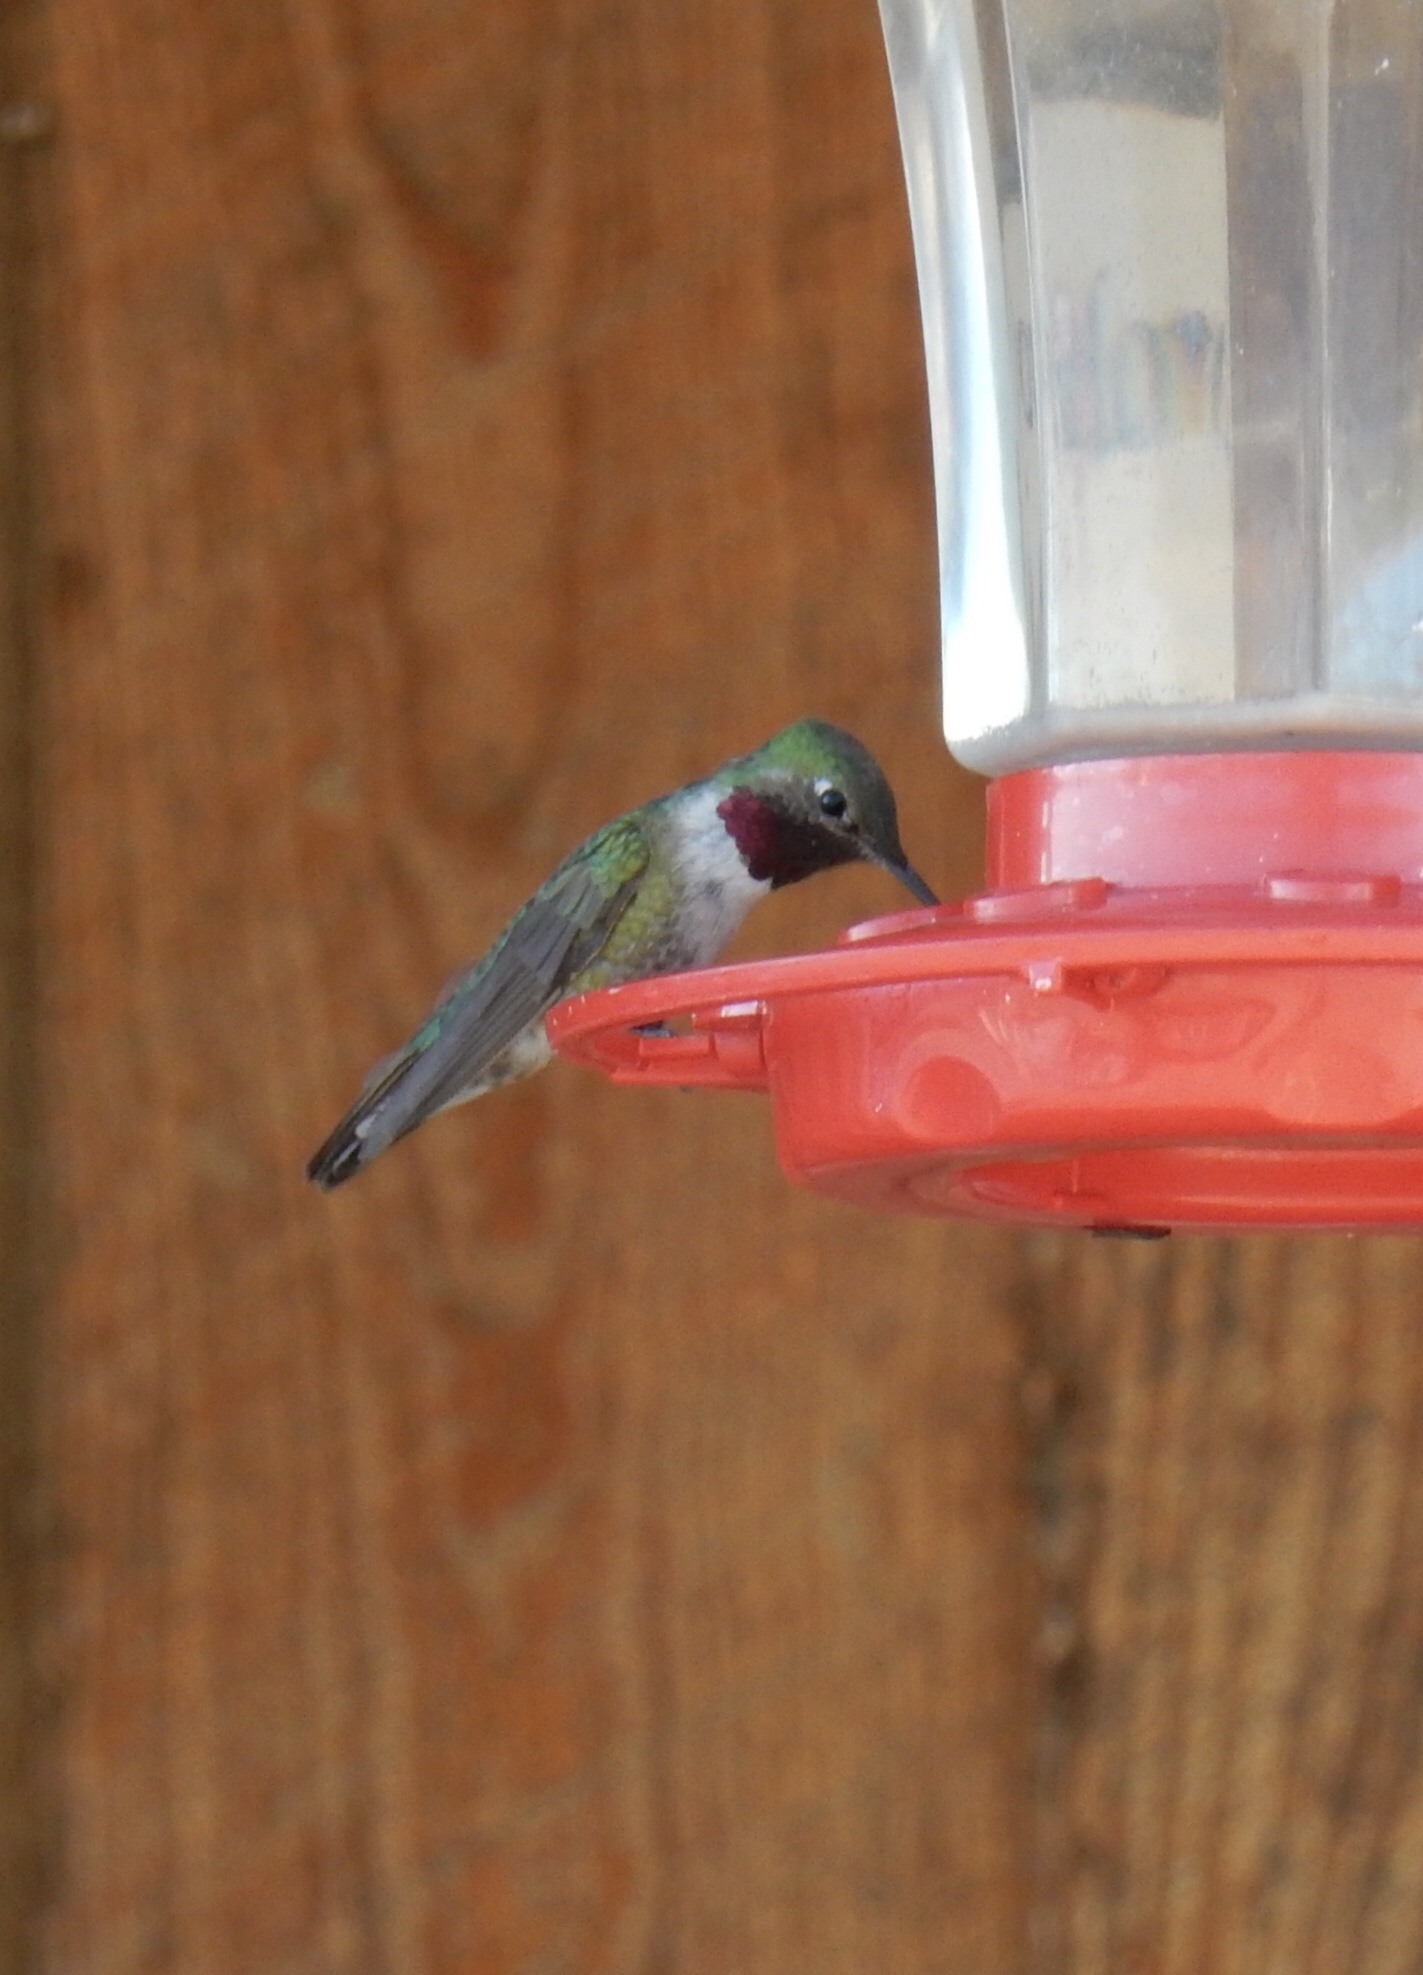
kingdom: Animalia
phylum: Chordata
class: Aves
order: Apodiformes
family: Trochilidae
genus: Selasphorus
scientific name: Selasphorus platycercus
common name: Broad-tailed hummingbird
